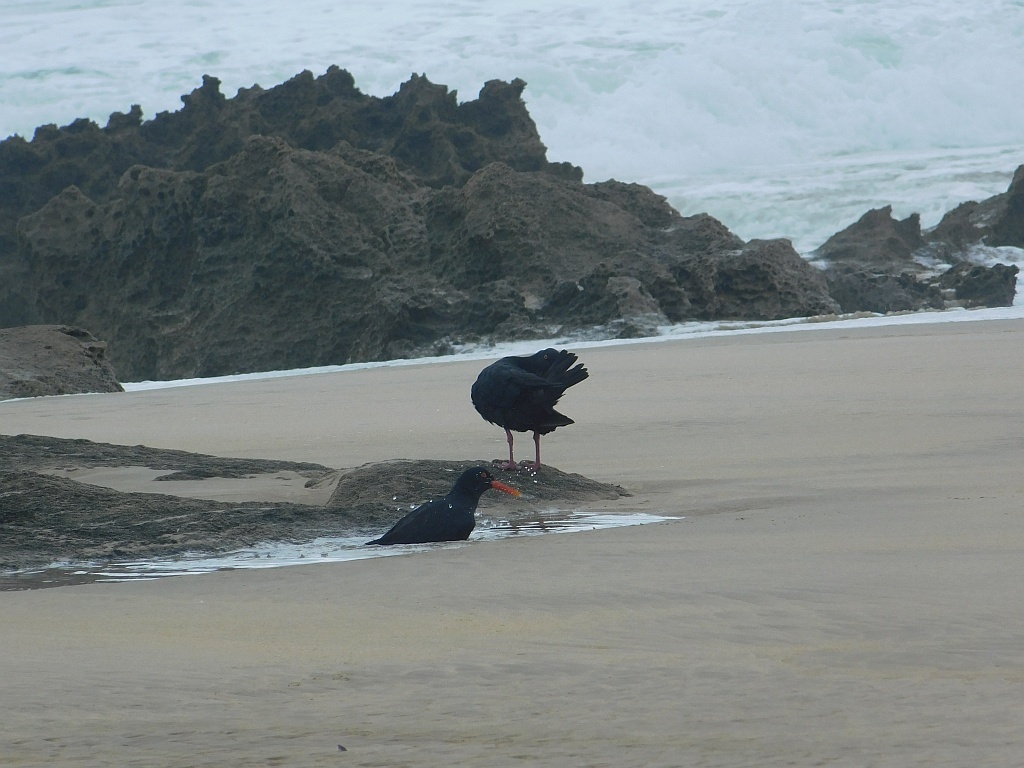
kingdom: Animalia
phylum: Chordata
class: Aves
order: Charadriiformes
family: Haematopodidae
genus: Haematopus
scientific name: Haematopus moquini
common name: African oystercatcher
